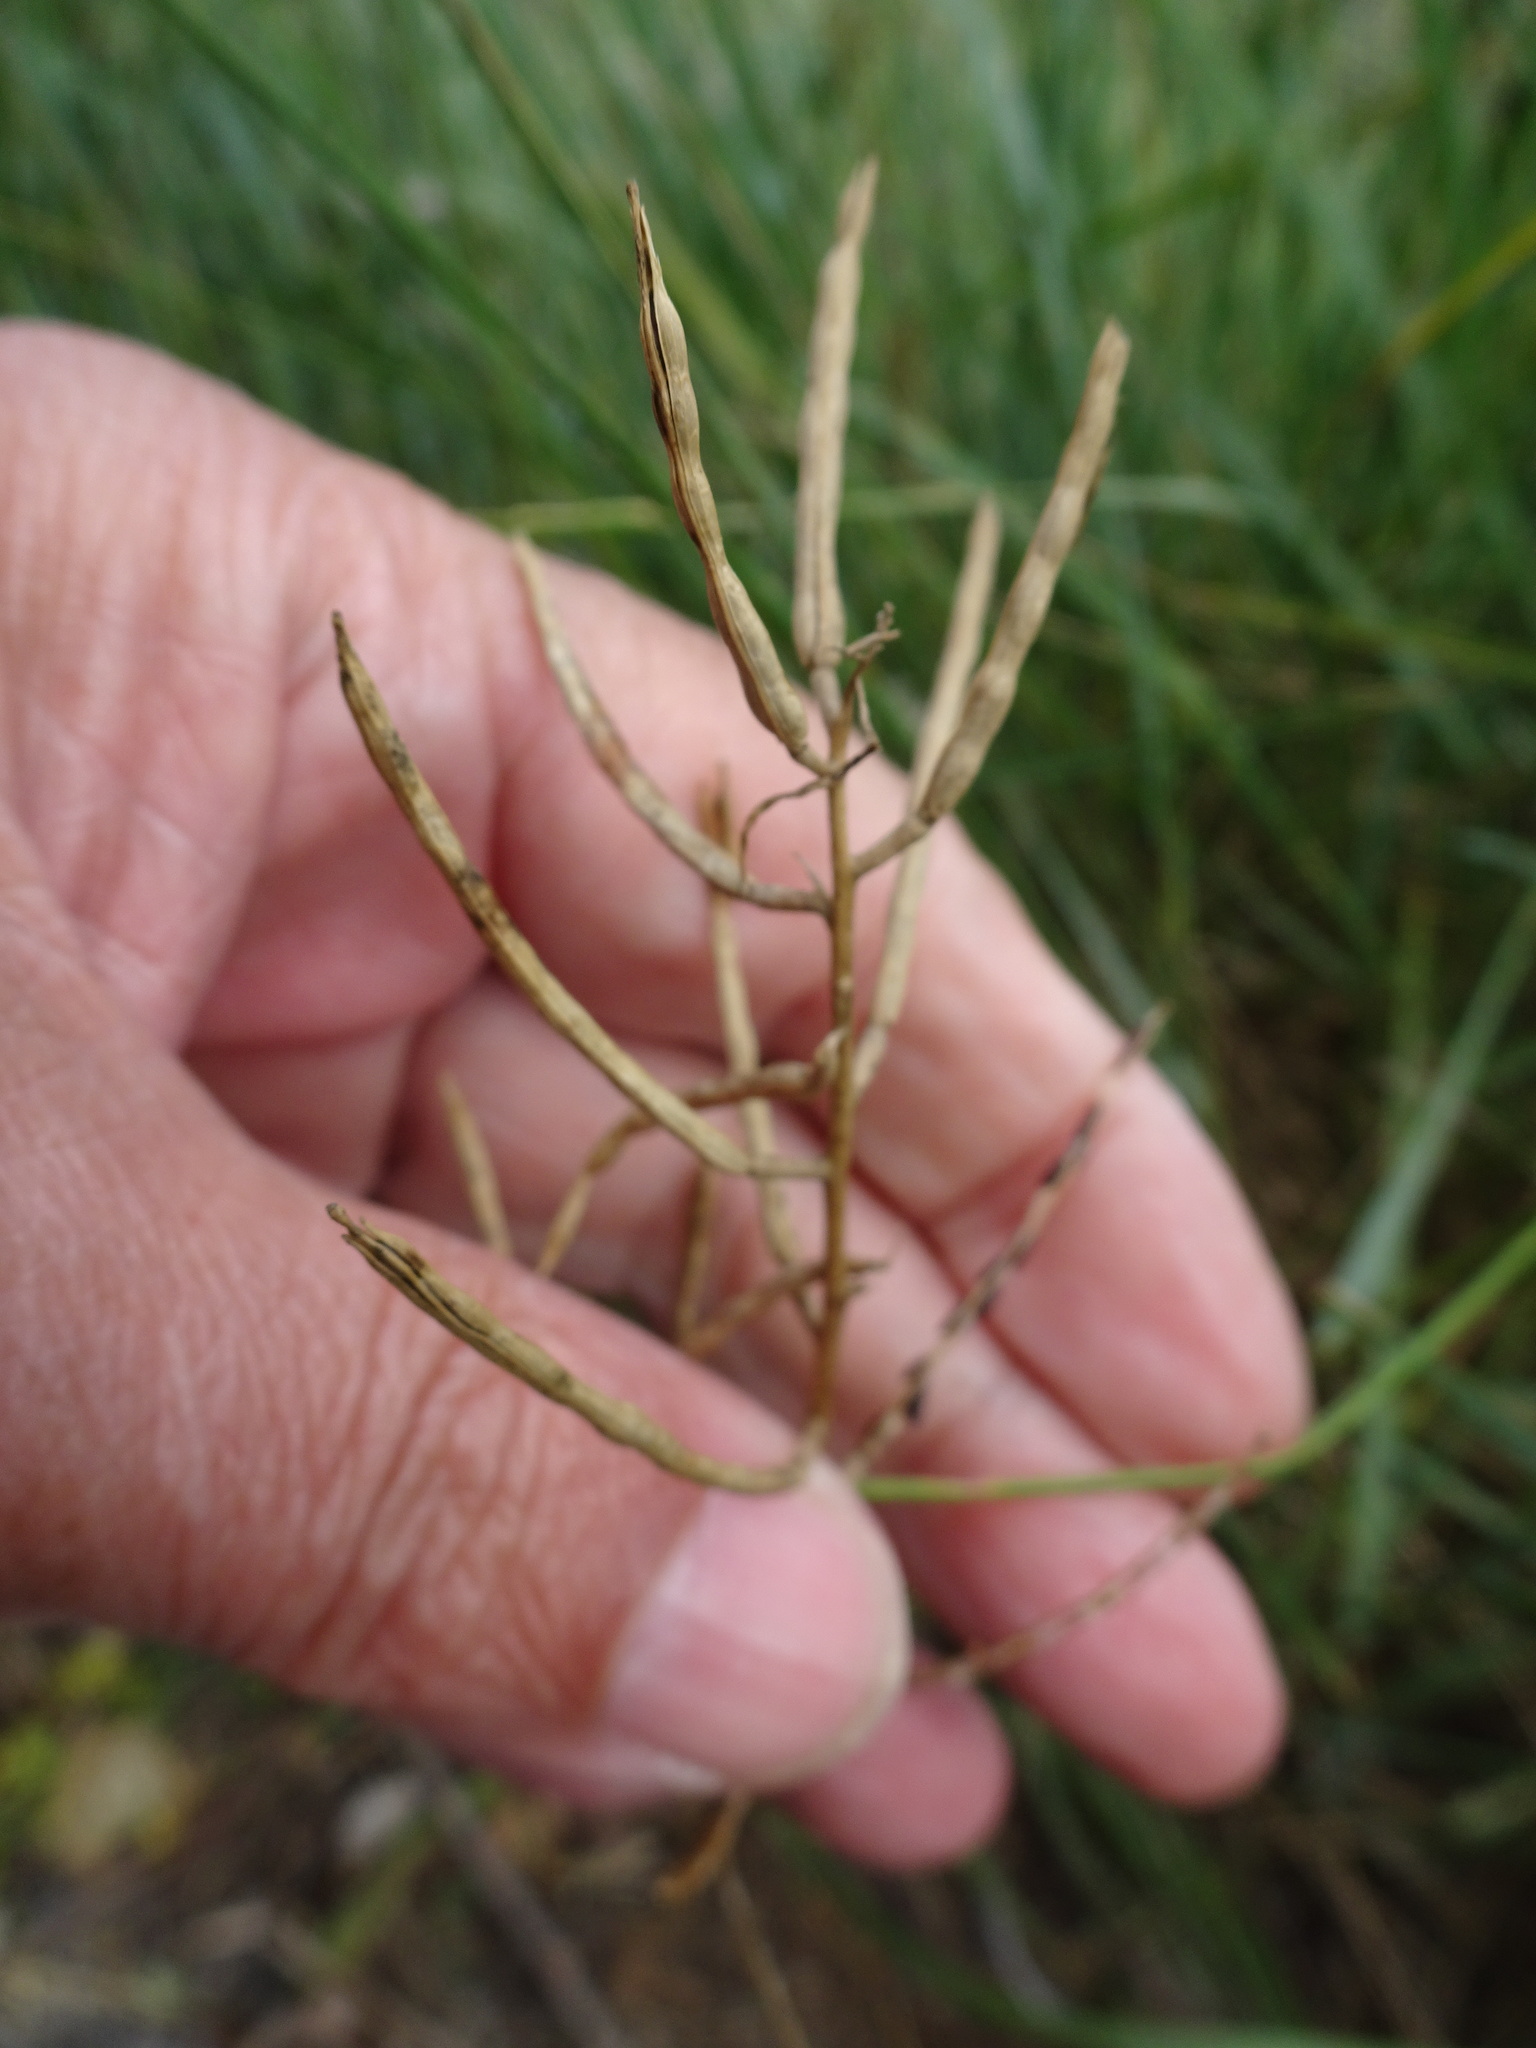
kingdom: Plantae
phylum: Tracheophyta
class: Magnoliopsida
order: Brassicales
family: Brassicaceae
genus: Alliaria
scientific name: Alliaria petiolata
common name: Garlic mustard
